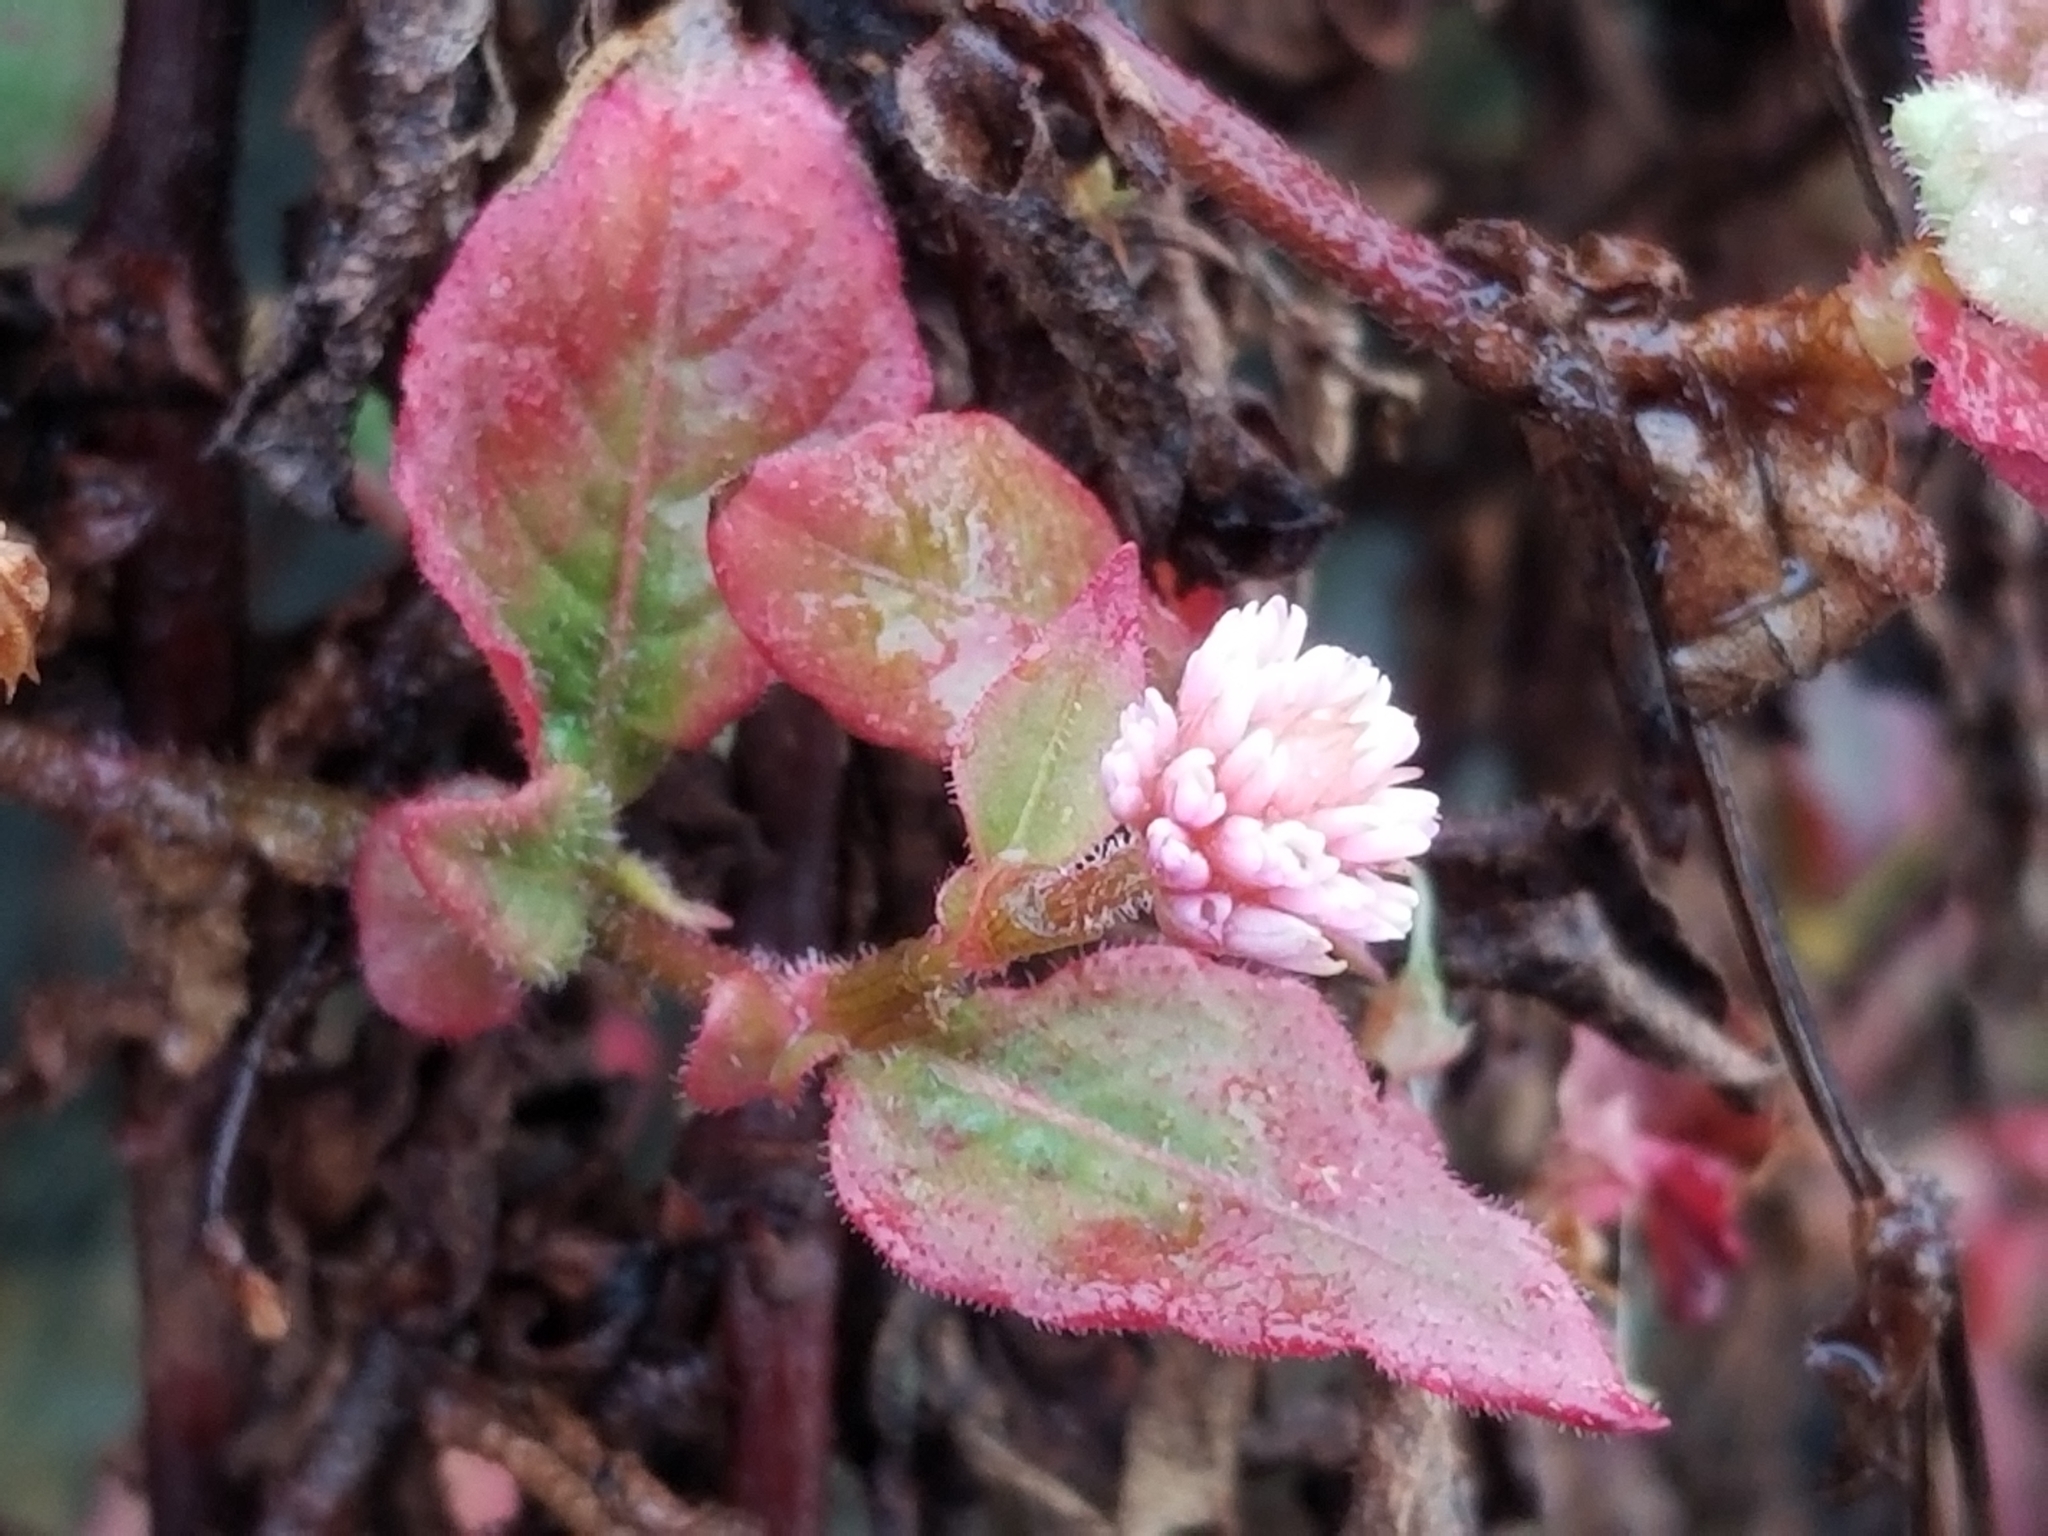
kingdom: Plantae
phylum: Tracheophyta
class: Magnoliopsida
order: Caryophyllales
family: Polygonaceae
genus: Persicaria
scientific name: Persicaria capitata
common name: Pinkhead smartweed
